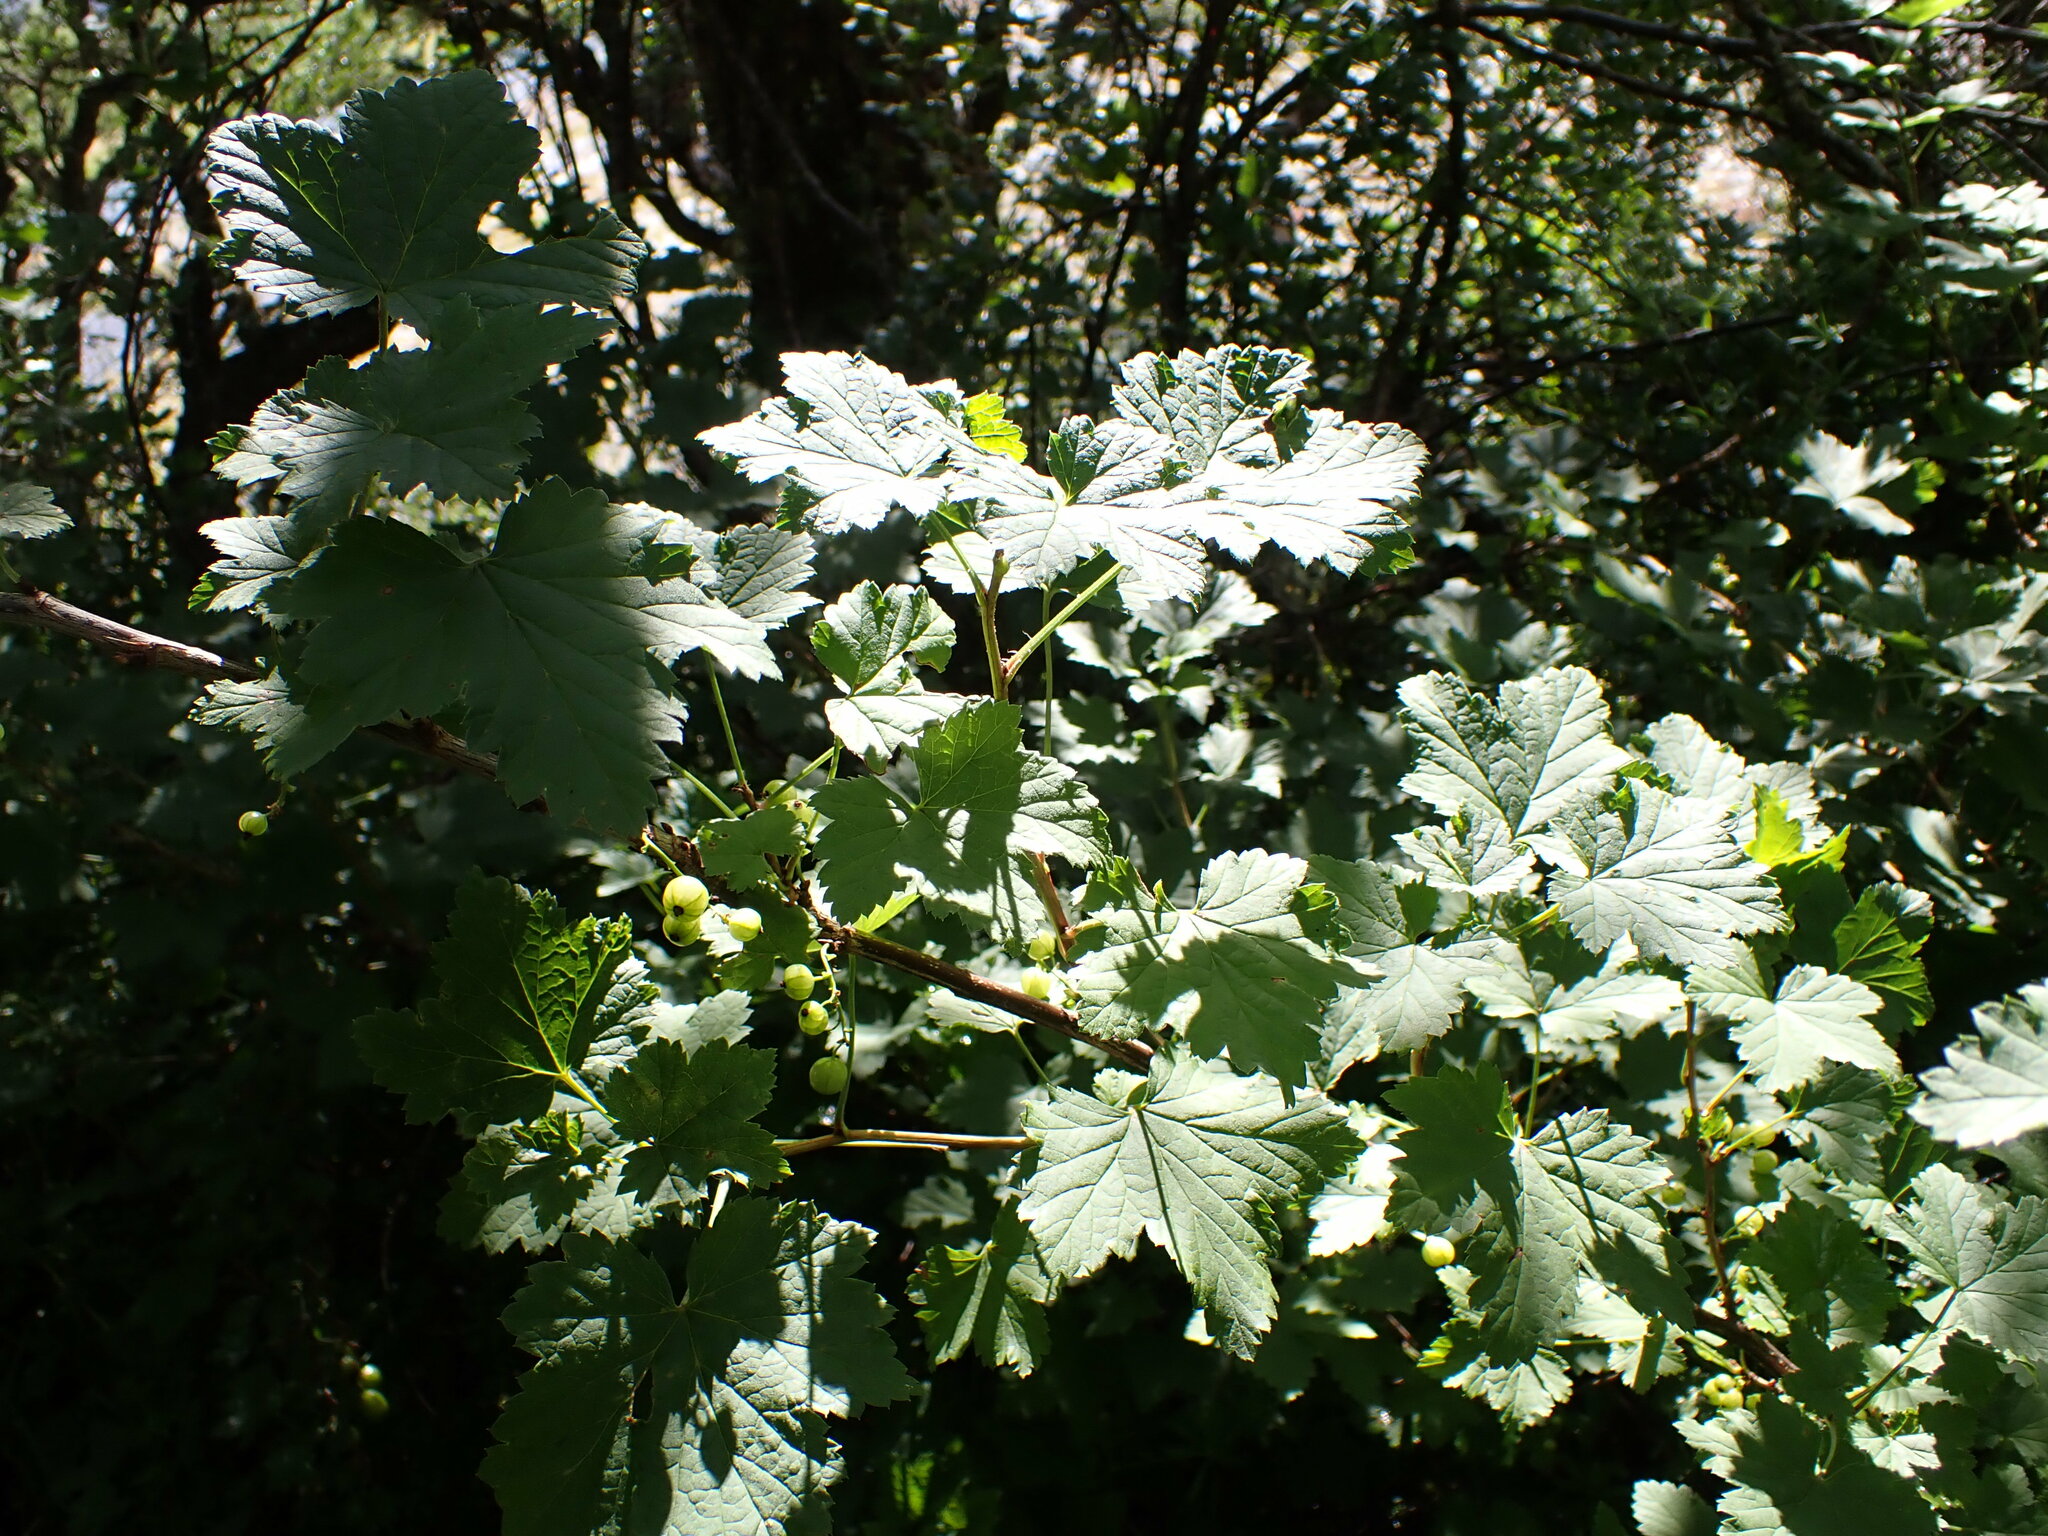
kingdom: Plantae
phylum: Tracheophyta
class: Magnoliopsida
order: Saxifragales
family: Grossulariaceae
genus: Ribes
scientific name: Ribes rubrum
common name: Red currant
